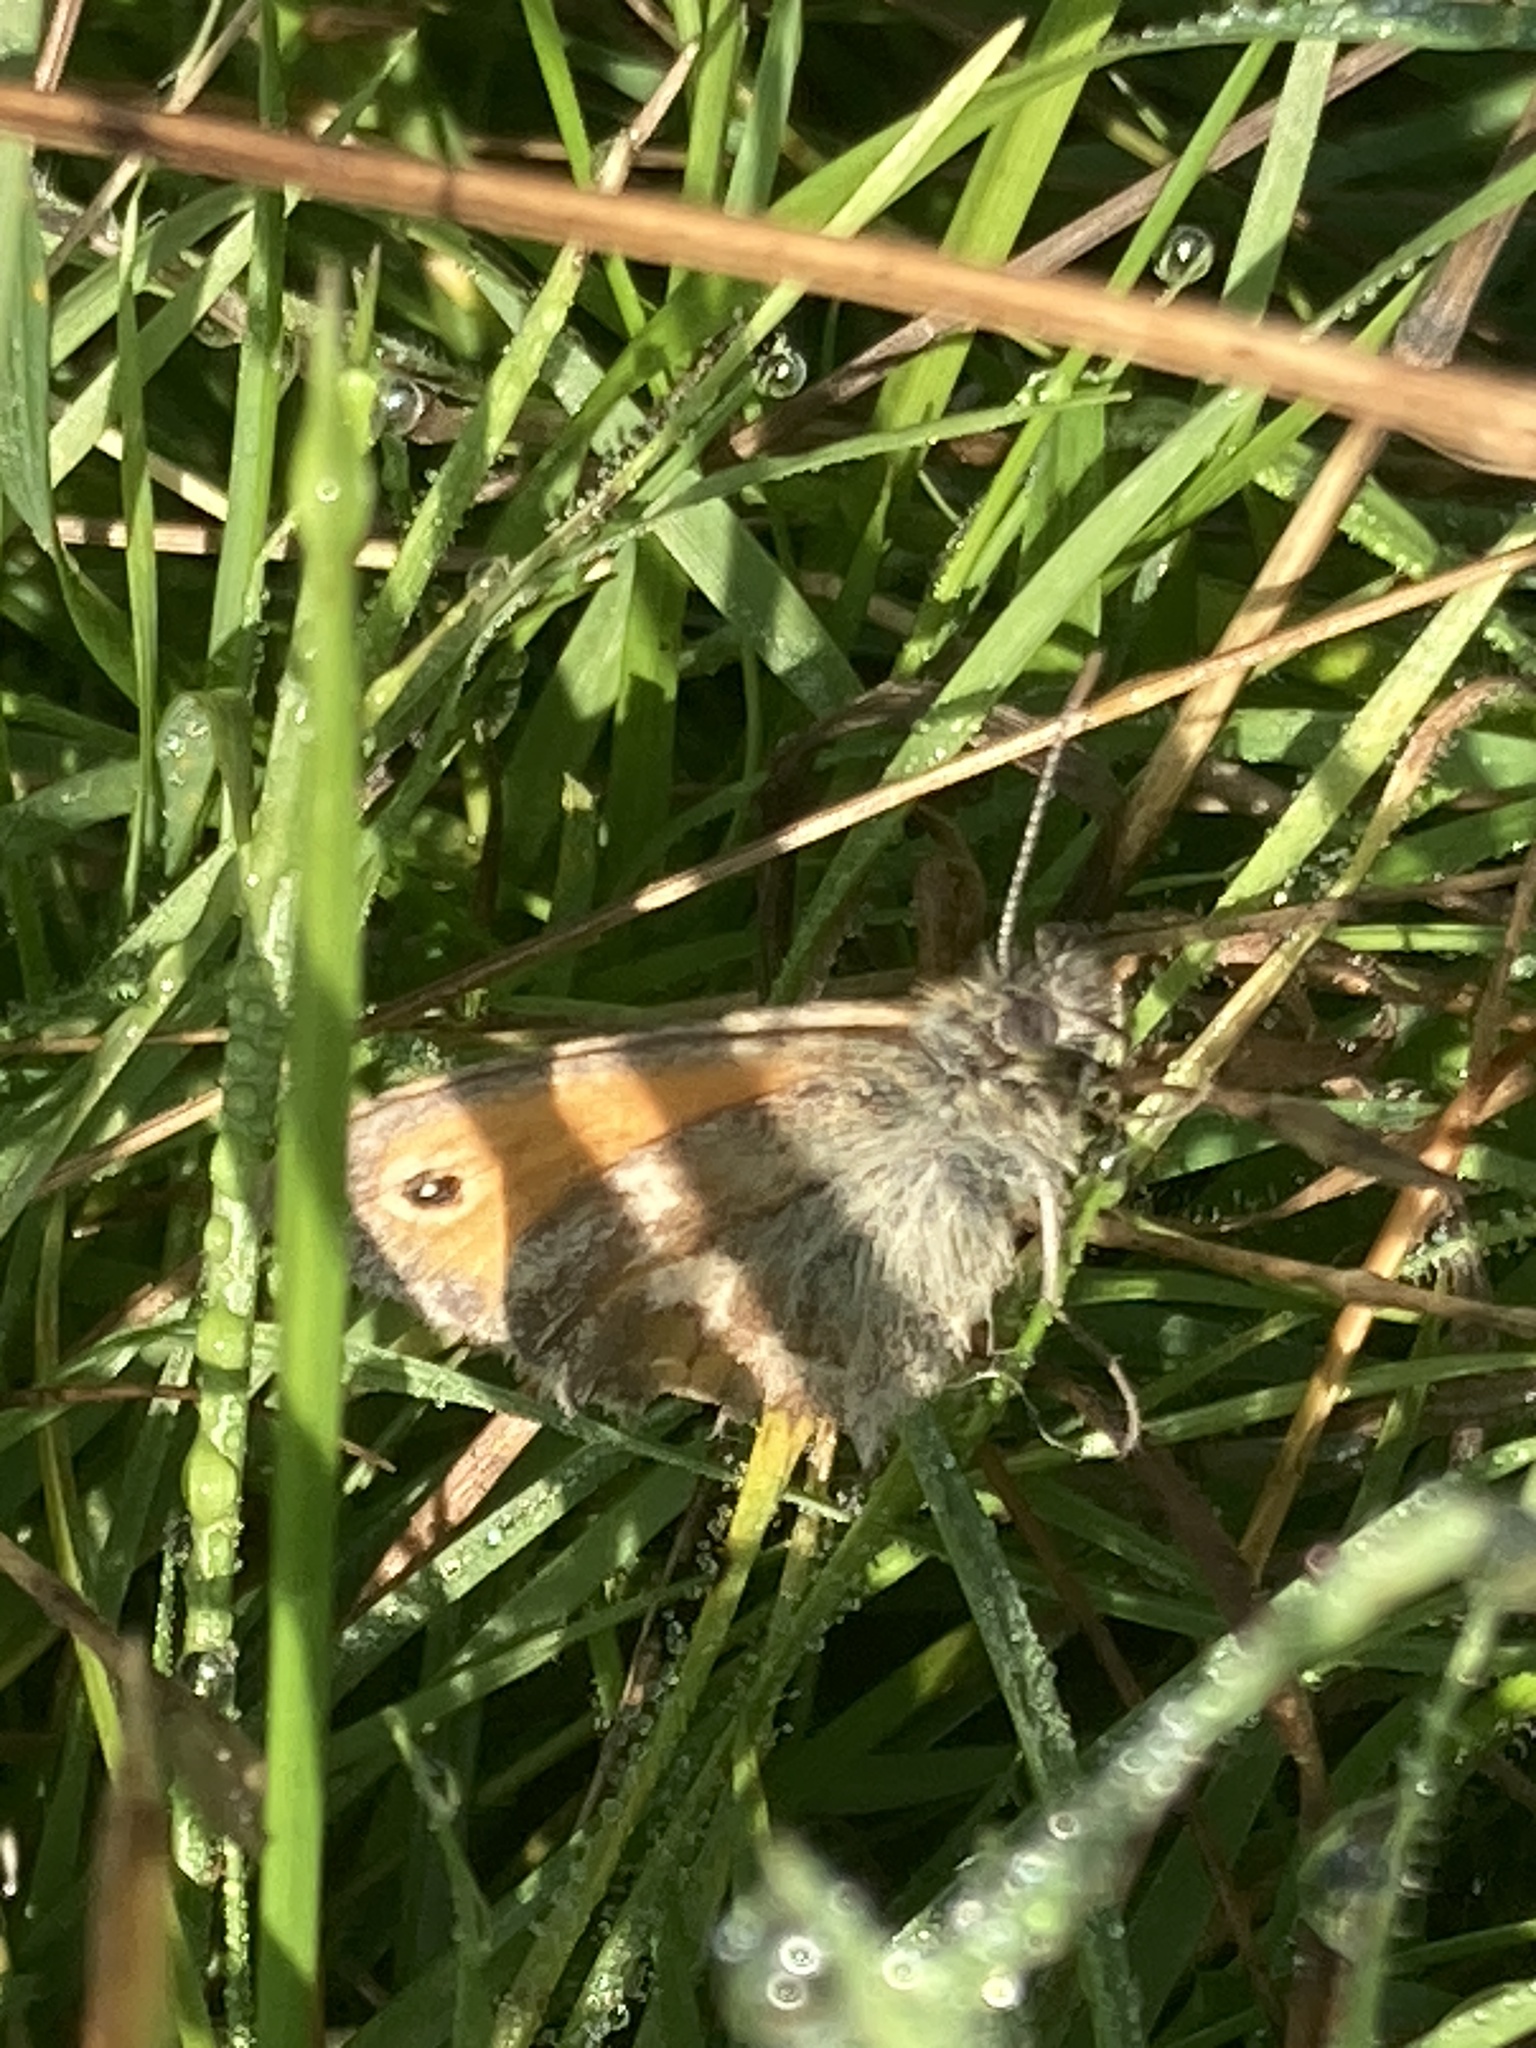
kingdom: Animalia
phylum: Arthropoda
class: Insecta
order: Lepidoptera
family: Nymphalidae
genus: Coenonympha
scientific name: Coenonympha pamphilus
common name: Small heath
